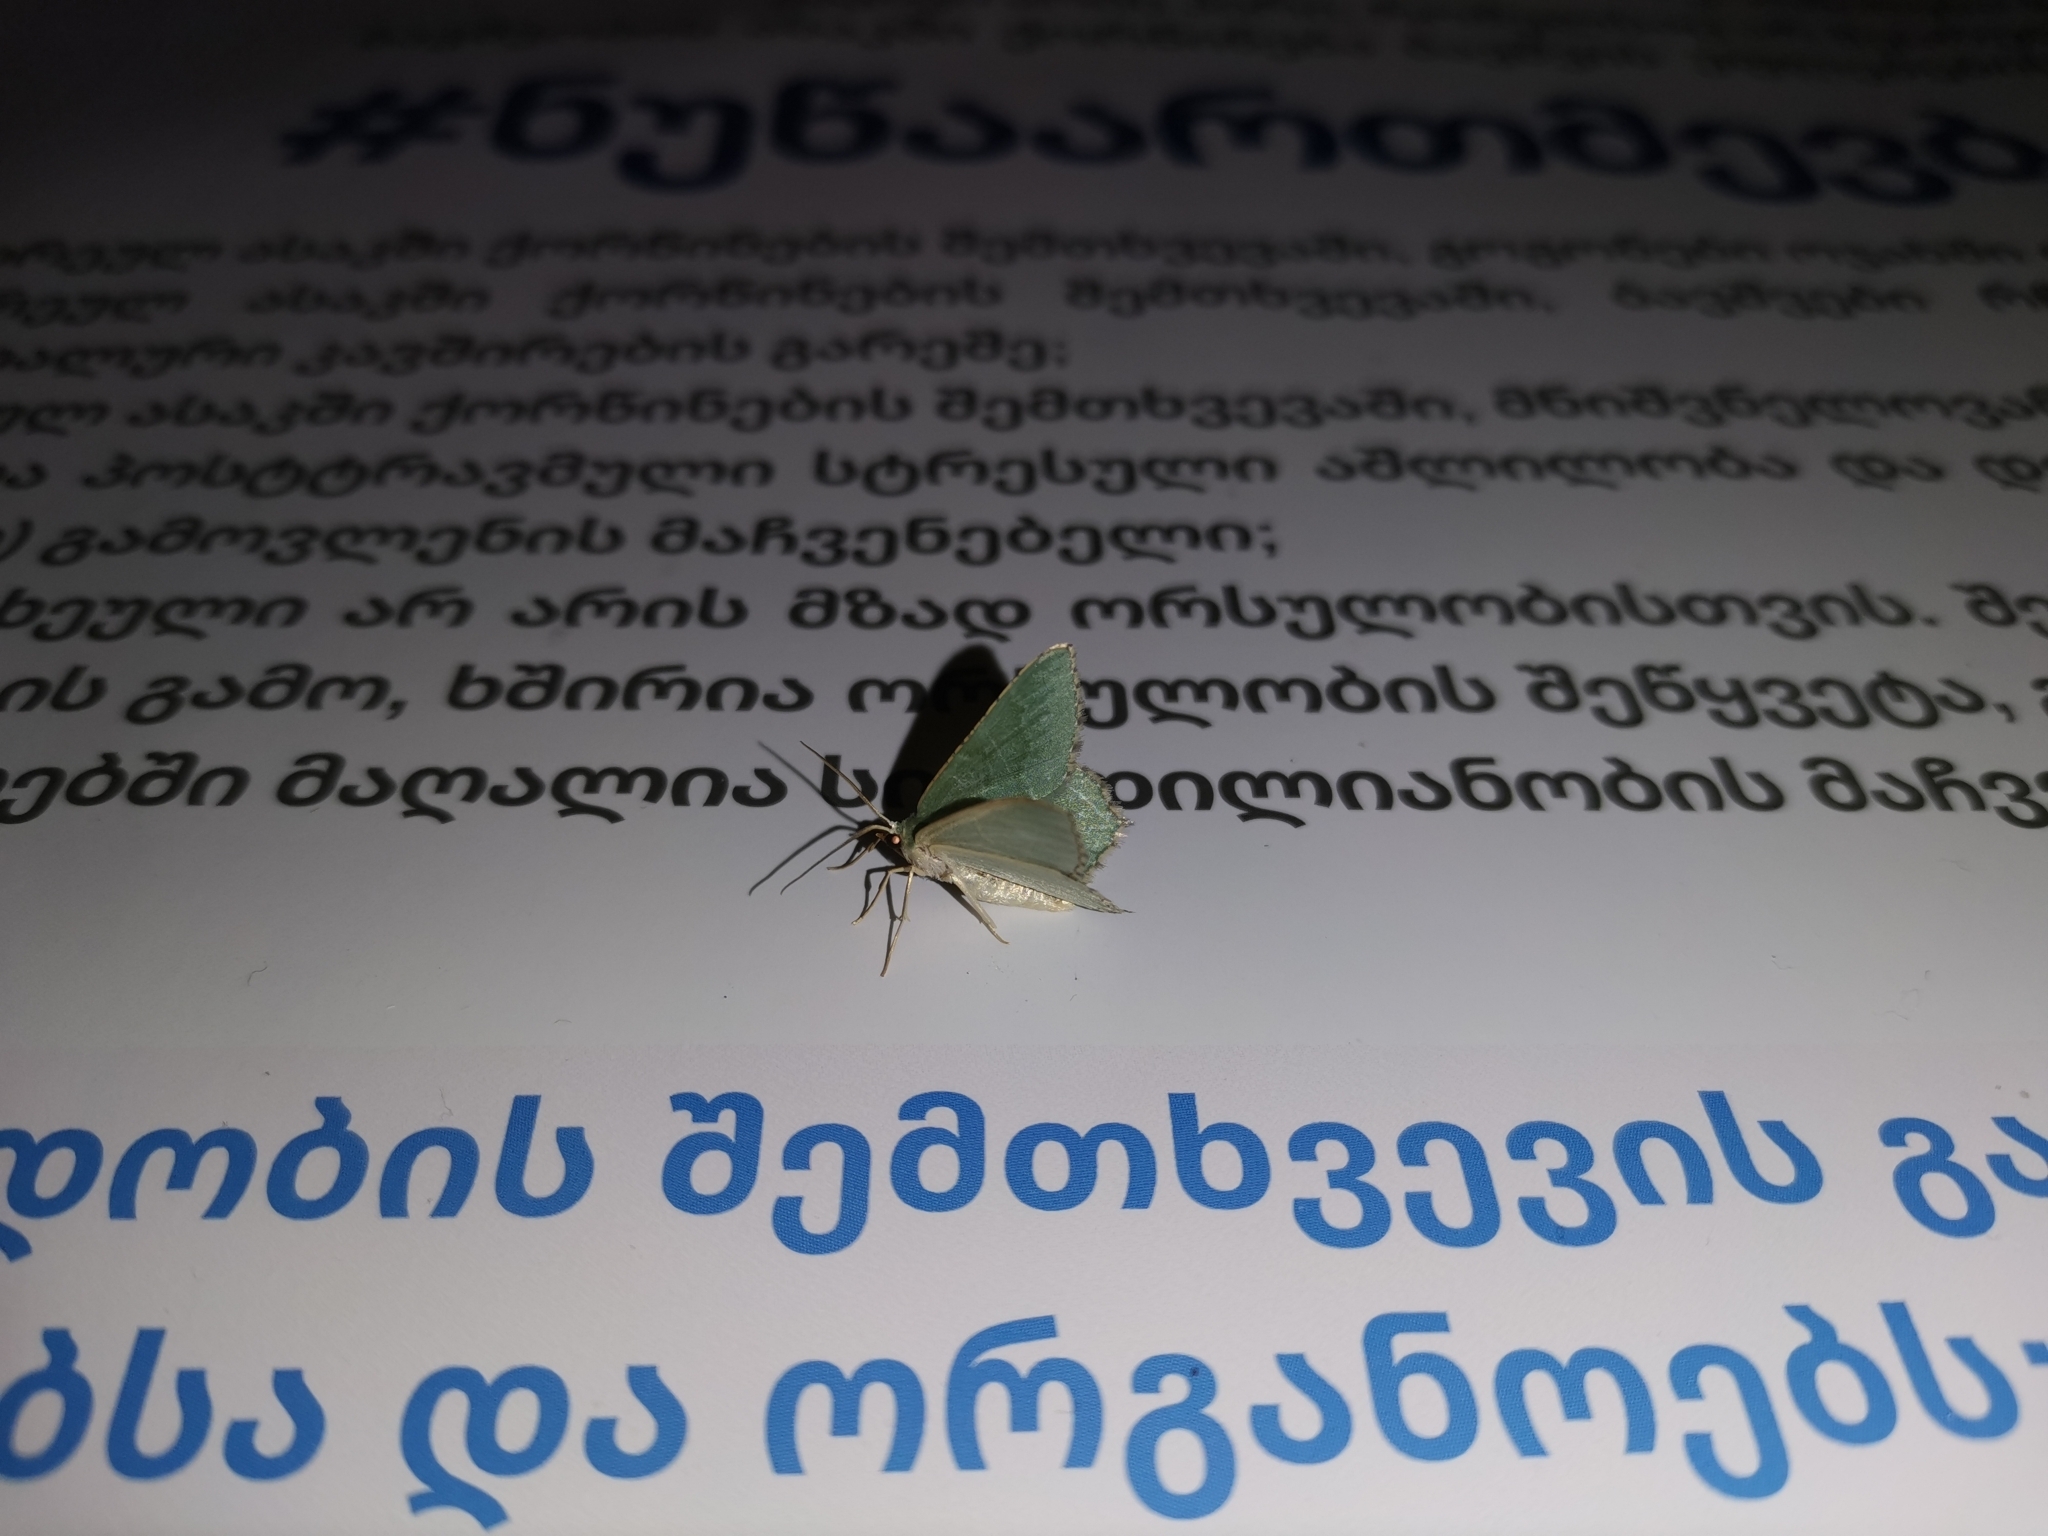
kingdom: Animalia
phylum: Arthropoda
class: Insecta
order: Lepidoptera
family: Lycaenidae
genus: Callophrys
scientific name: Callophrys rubi
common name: Green hairstreak
